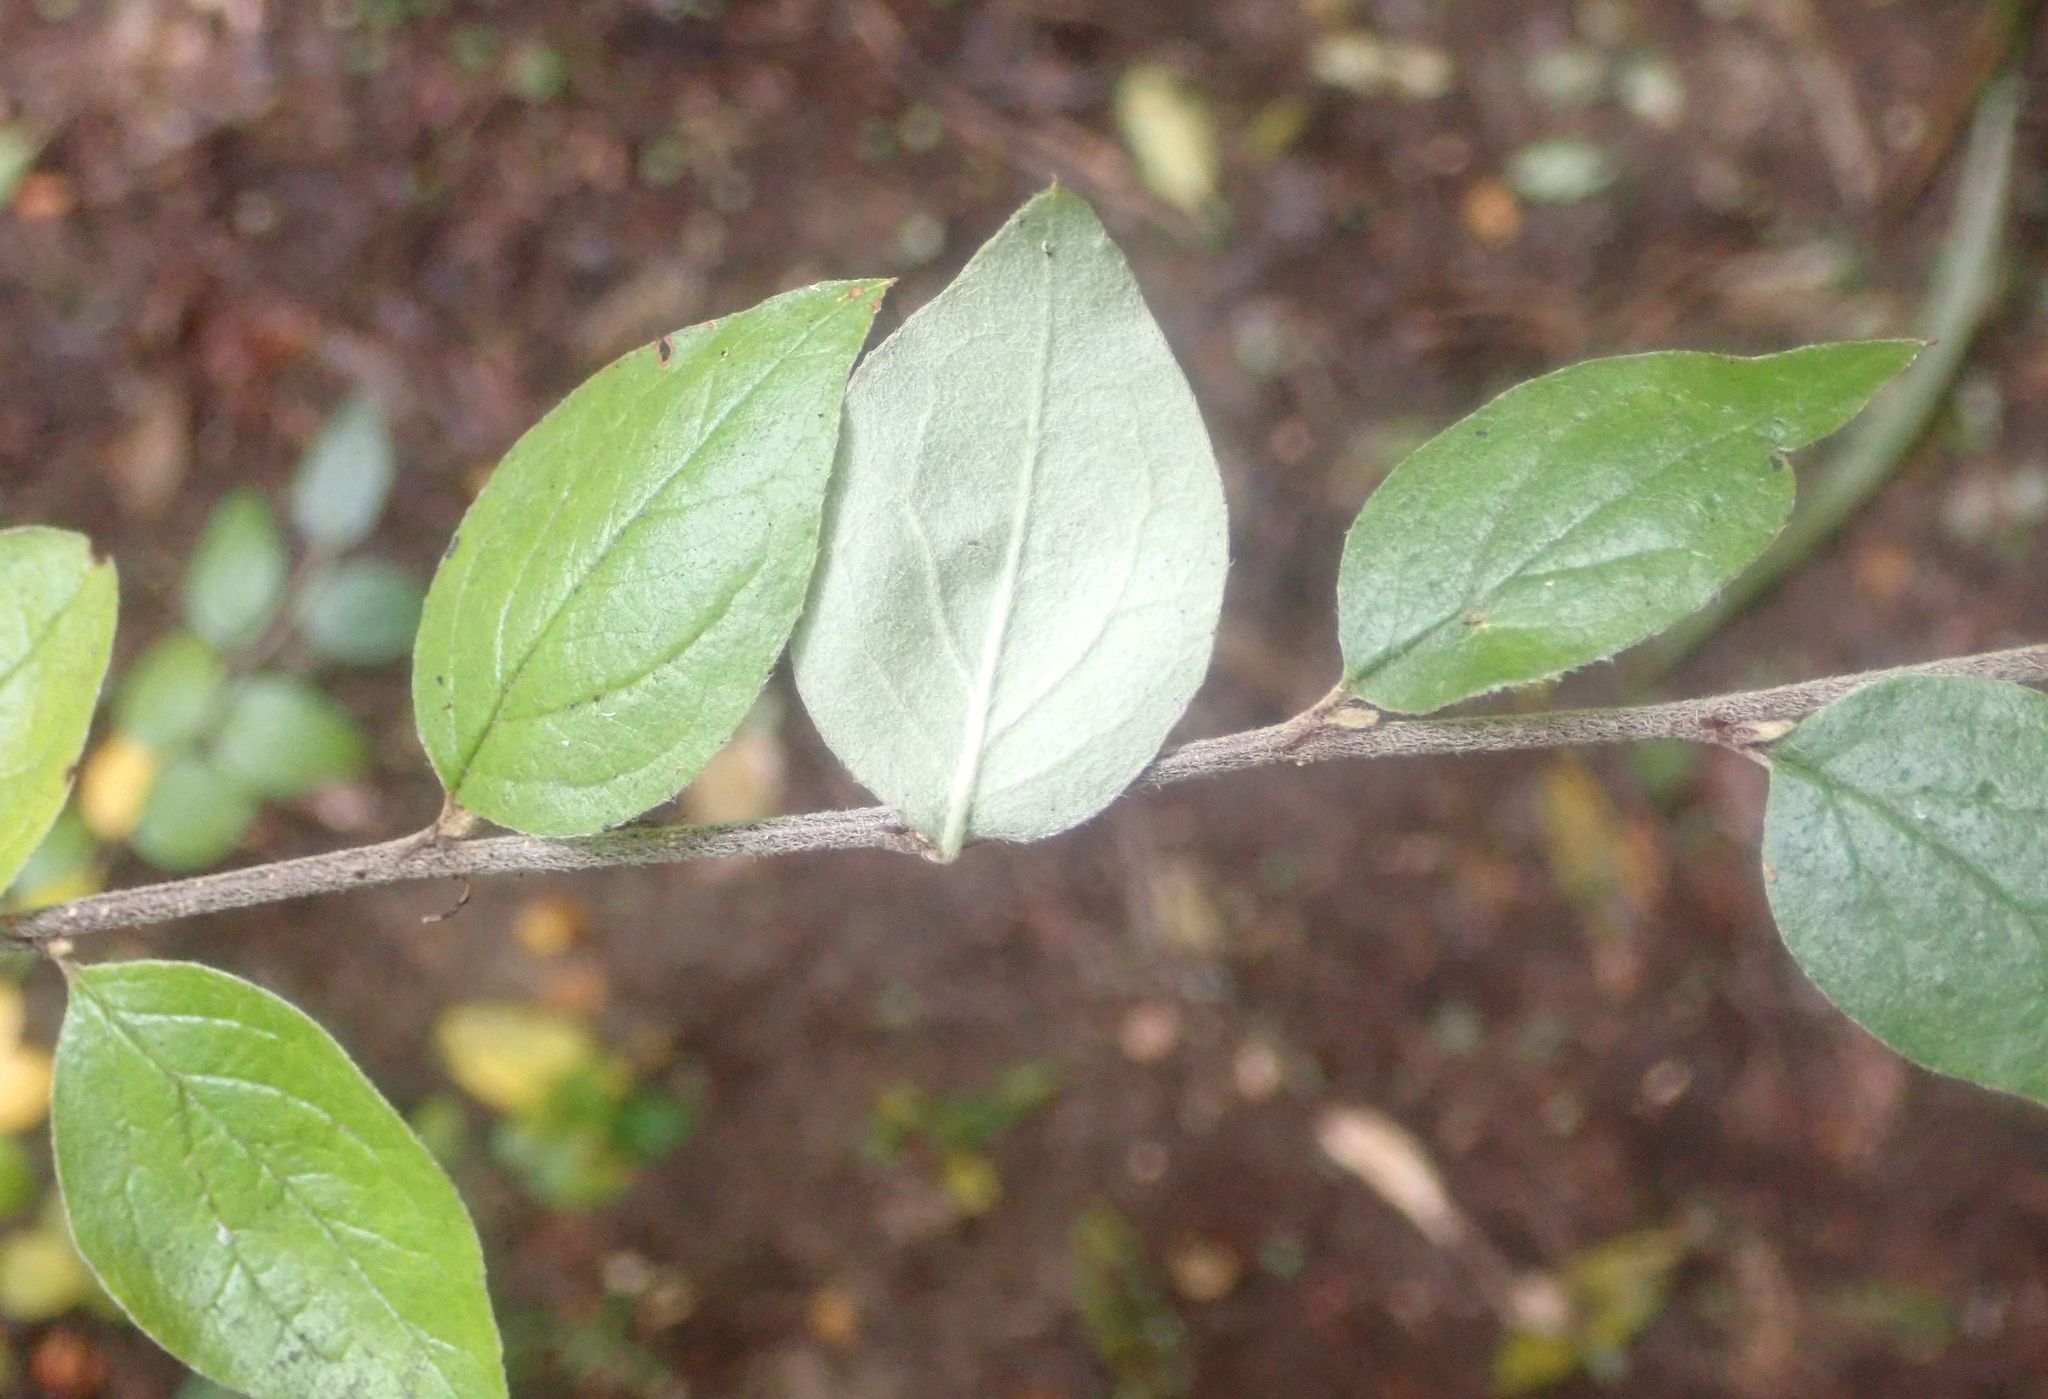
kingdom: Plantae
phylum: Tracheophyta
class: Magnoliopsida
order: Rosales
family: Rosaceae
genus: Cotoneaster
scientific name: Cotoneaster franchetii
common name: Franchet's cotoneaster
